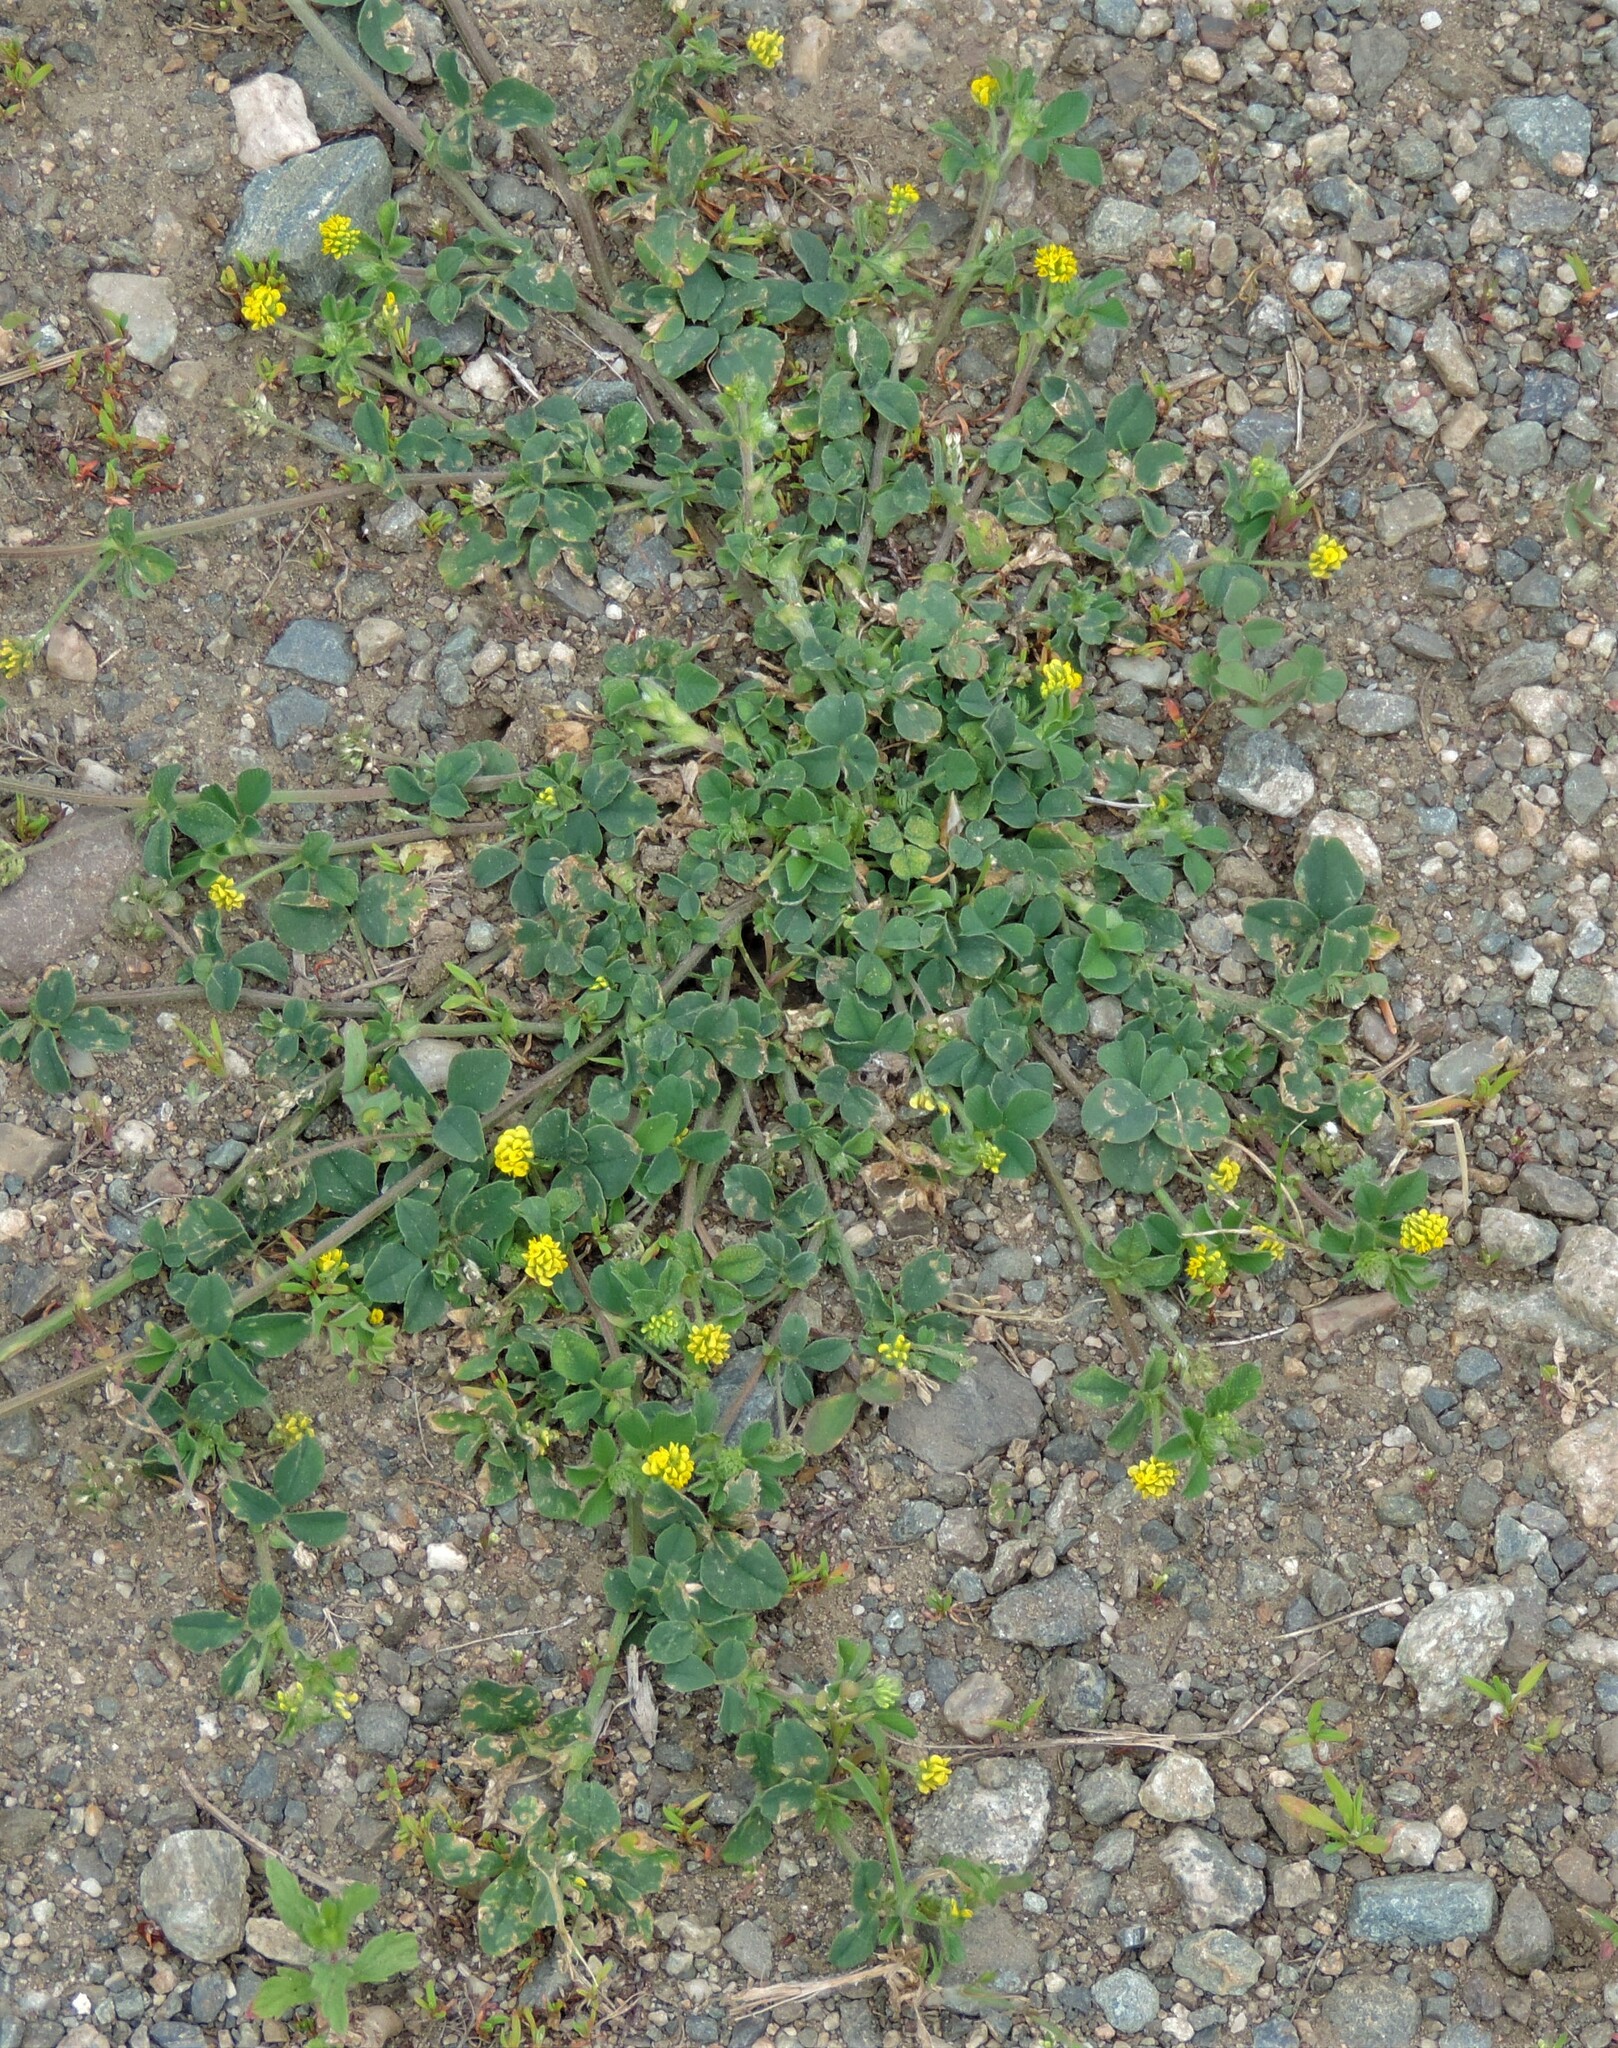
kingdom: Plantae
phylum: Tracheophyta
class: Magnoliopsida
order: Fabales
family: Fabaceae
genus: Medicago
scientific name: Medicago lupulina
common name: Black medick
